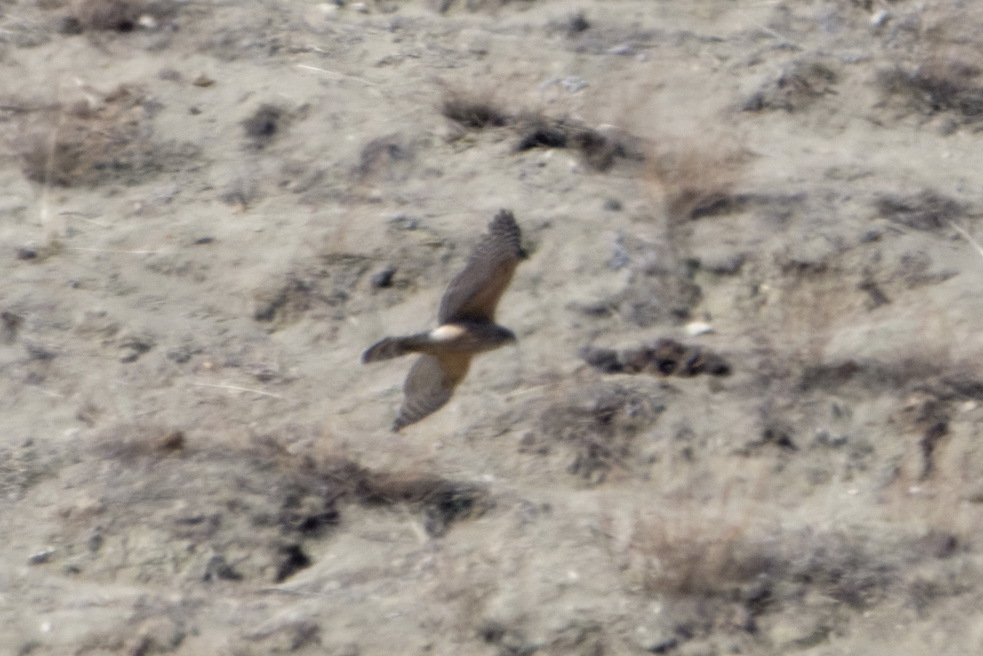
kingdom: Animalia
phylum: Chordata
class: Aves
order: Accipitriformes
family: Accipitridae
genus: Accipiter
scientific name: Accipiter gentilis
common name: Northern goshawk
